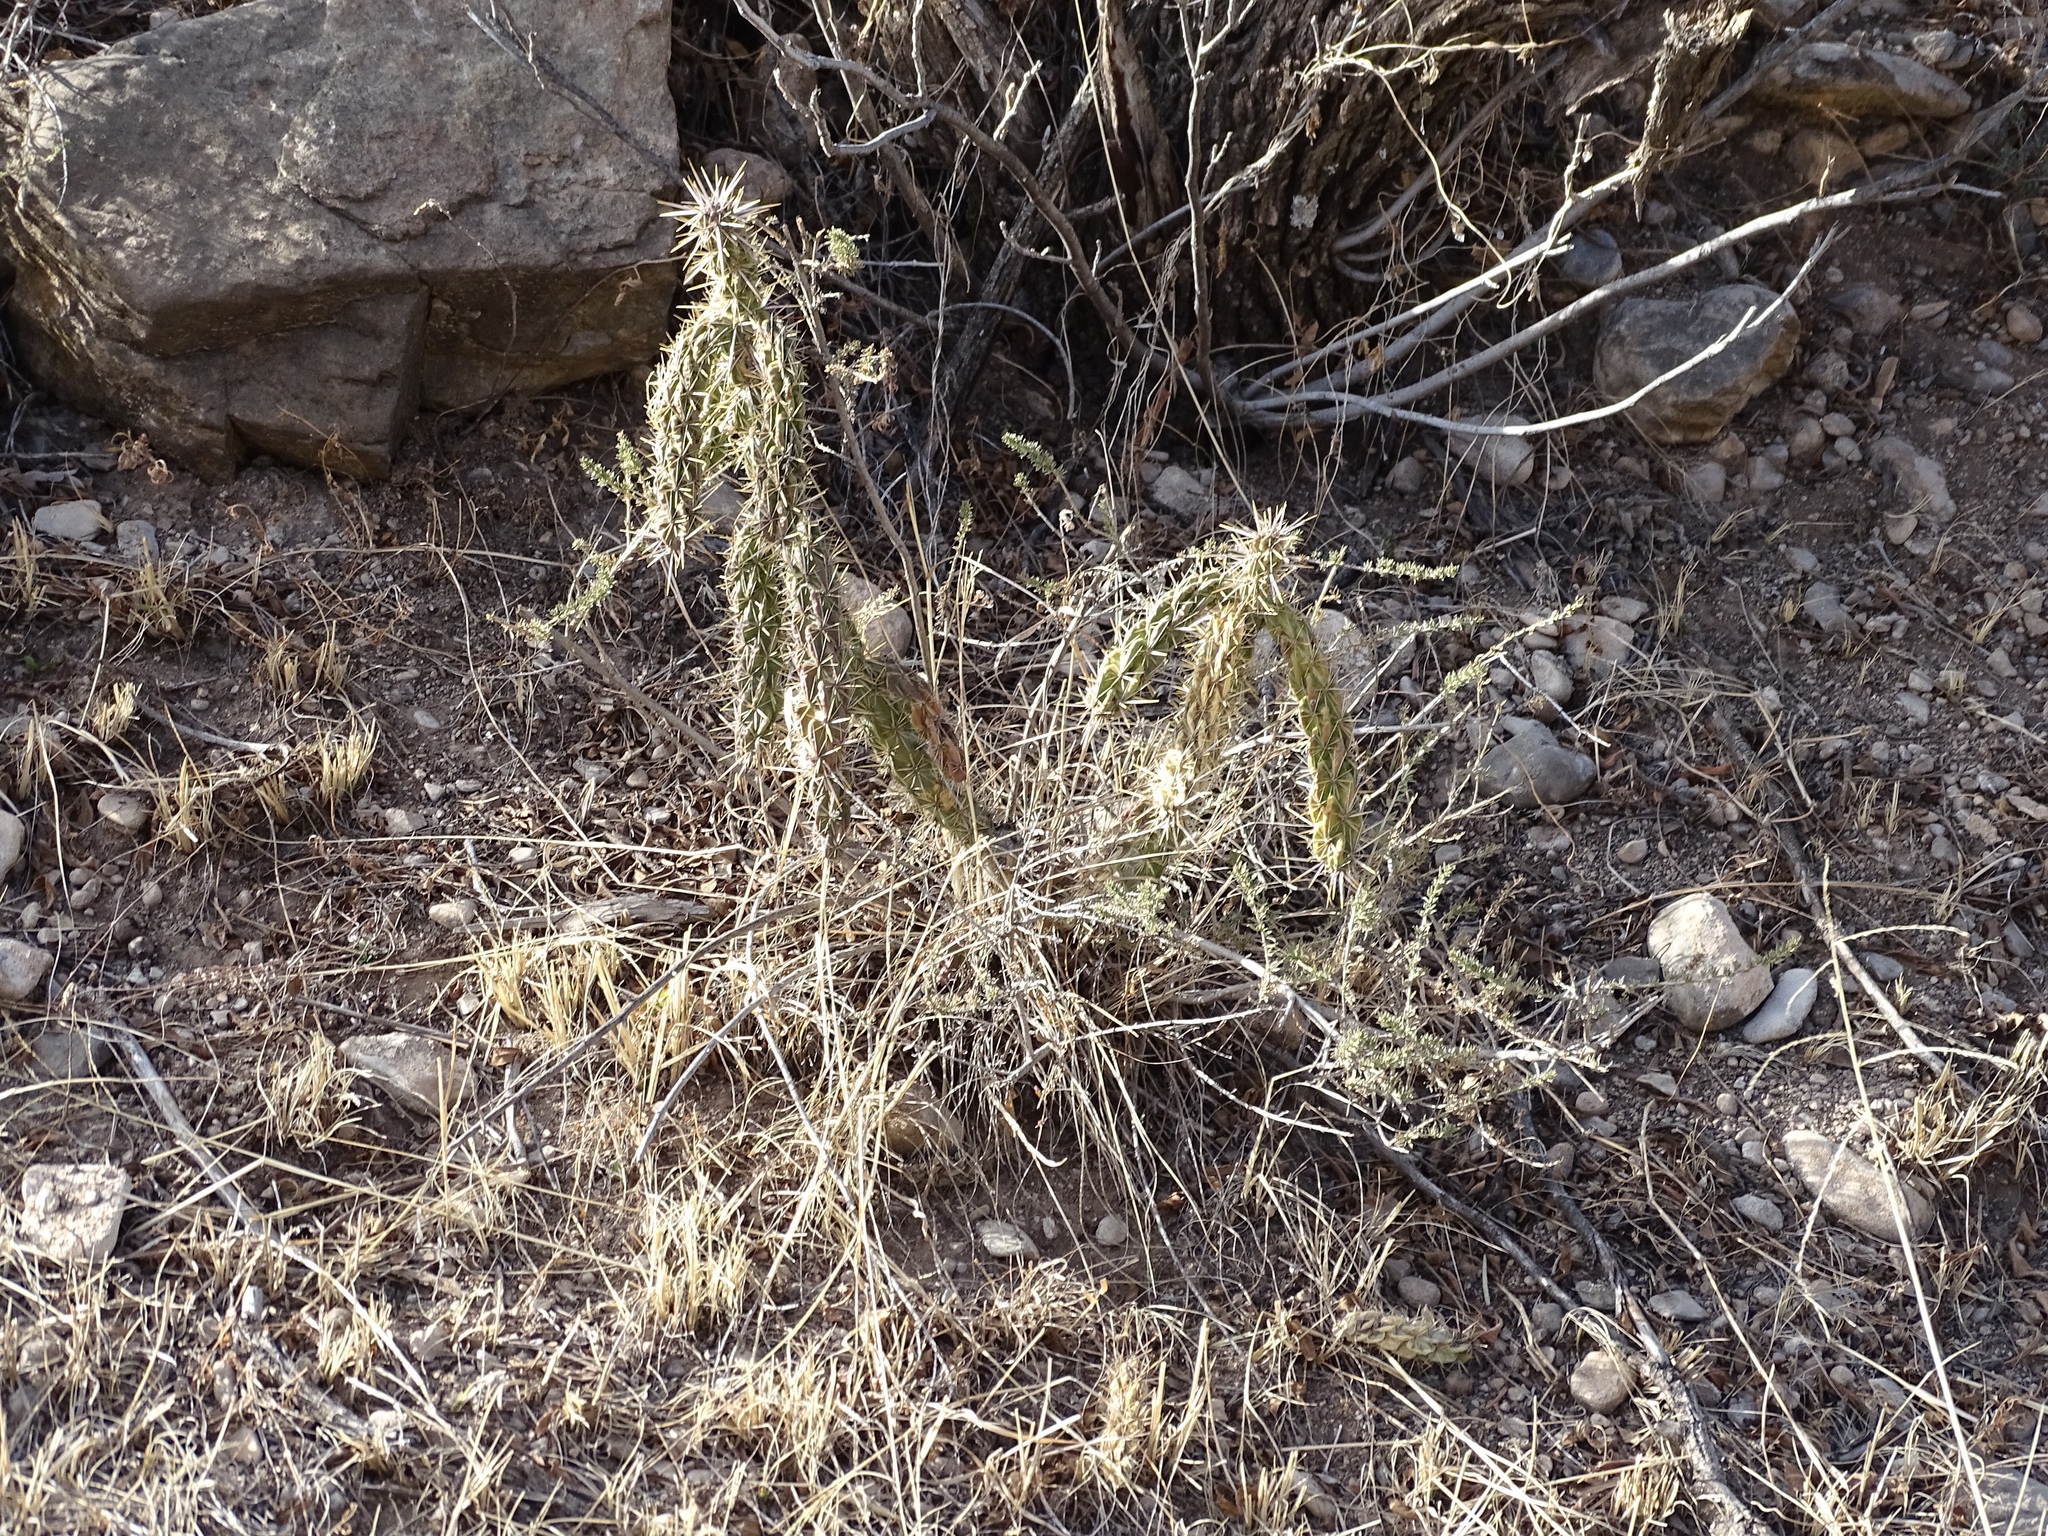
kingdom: Plantae
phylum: Tracheophyta
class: Magnoliopsida
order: Caryophyllales
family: Cactaceae
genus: Cylindropuntia
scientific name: Cylindropuntia imbricata
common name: Candelabrum cactus
